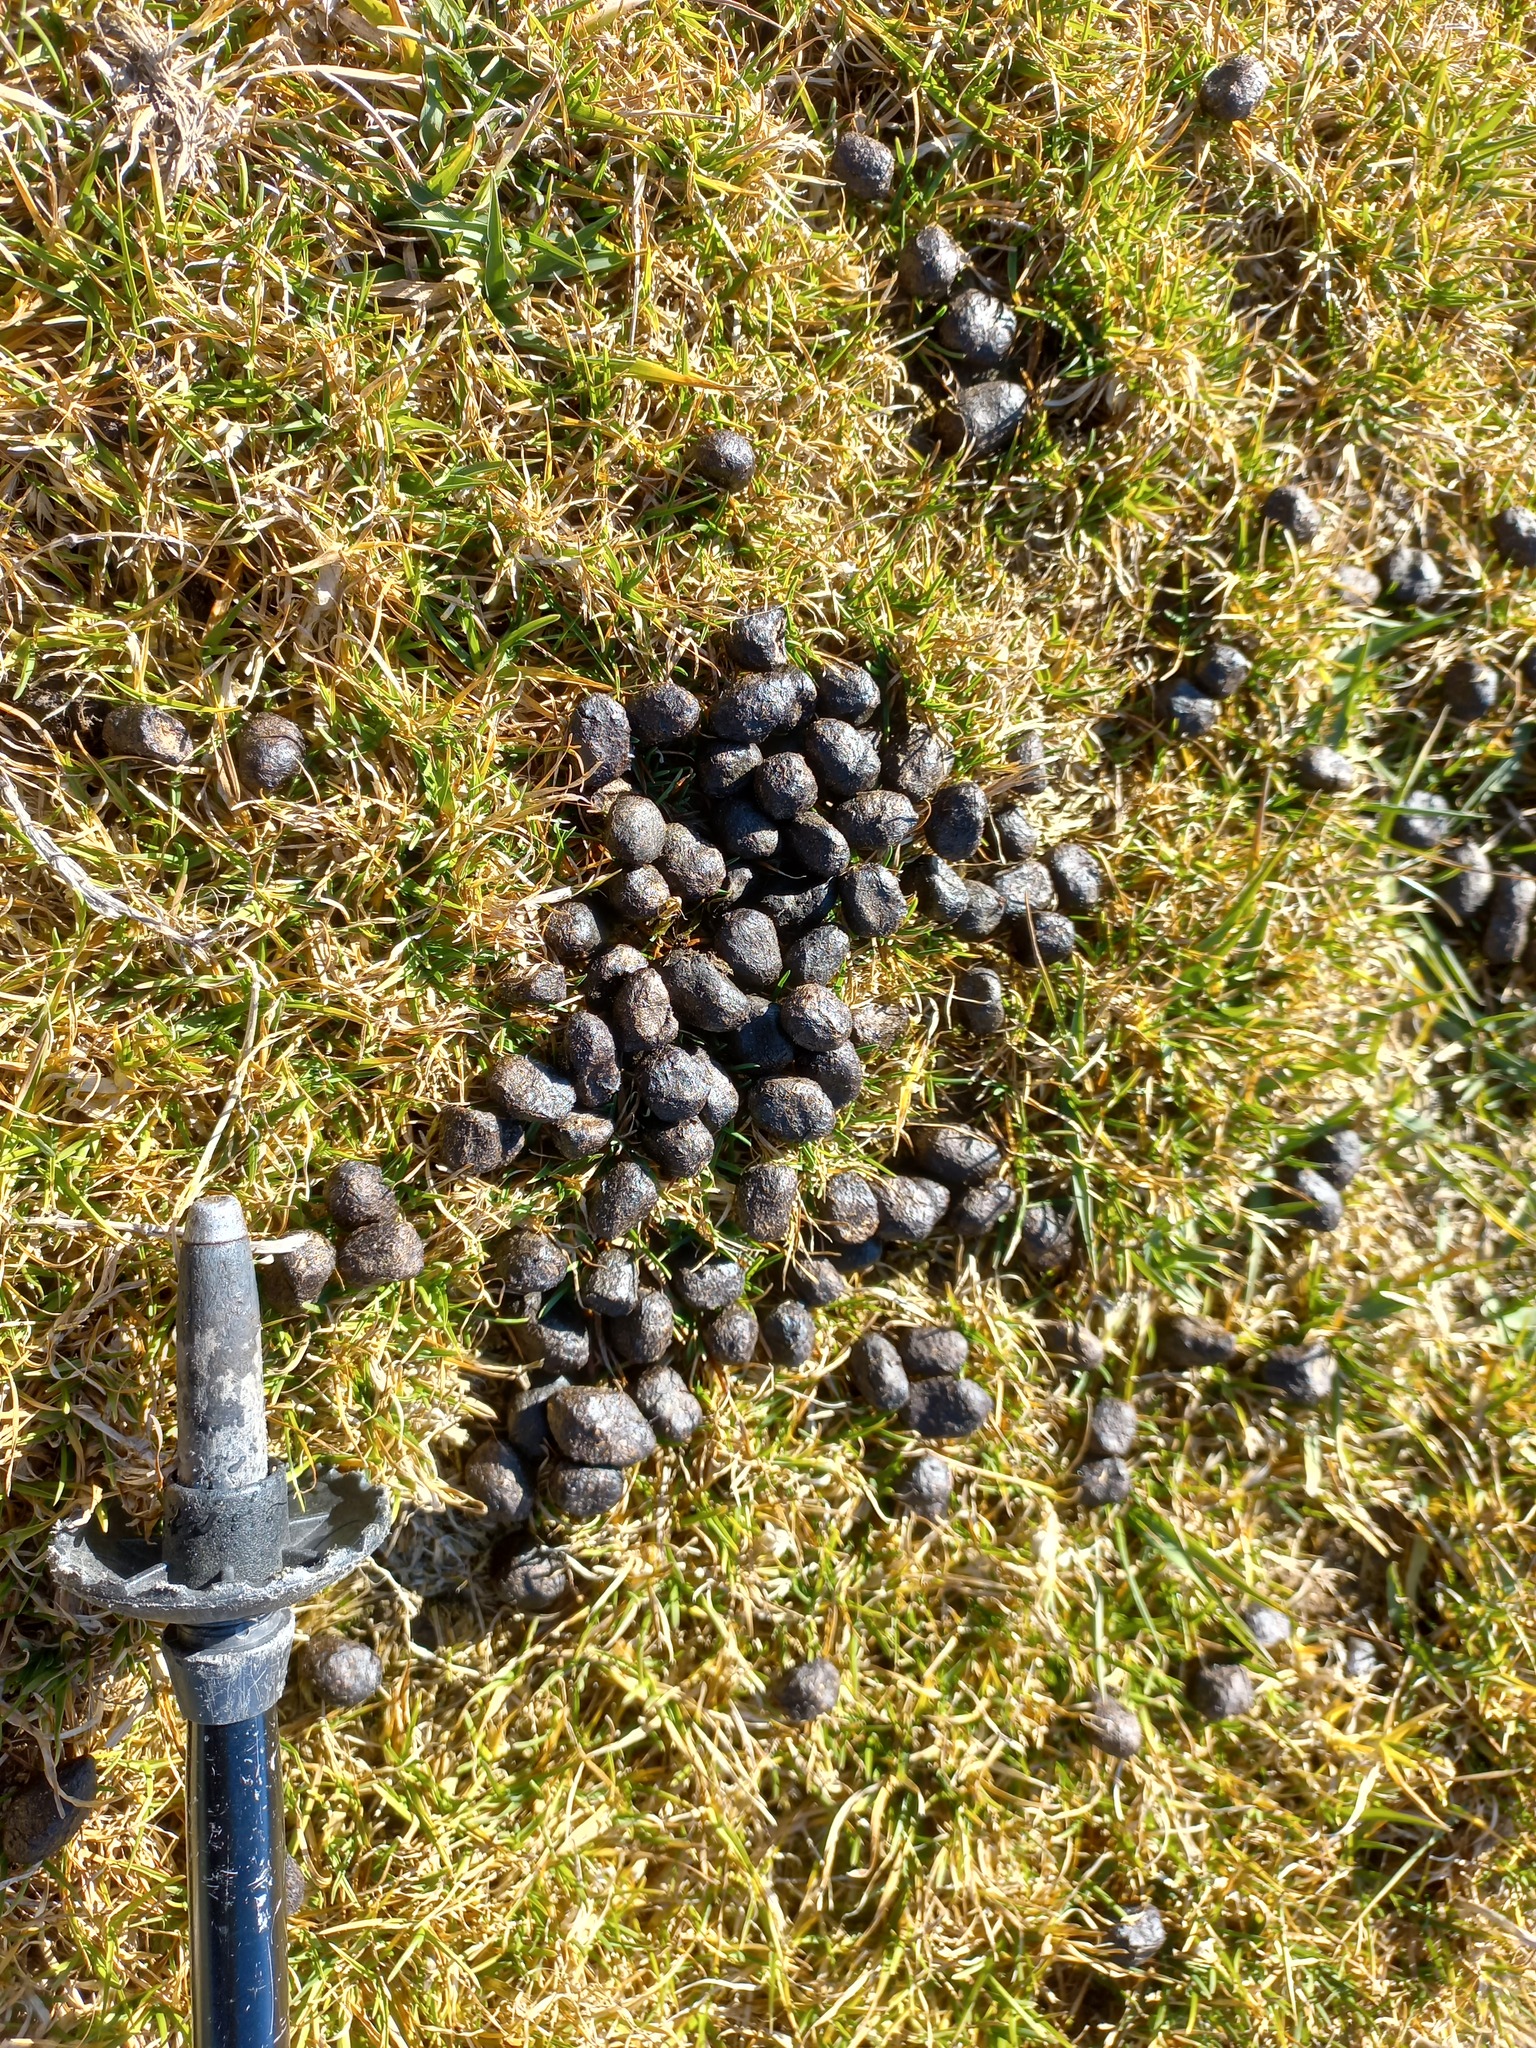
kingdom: Animalia
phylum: Chordata
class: Mammalia
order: Artiodactyla
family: Bovidae
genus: Rupicapra
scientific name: Rupicapra rupicapra
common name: Chamois
